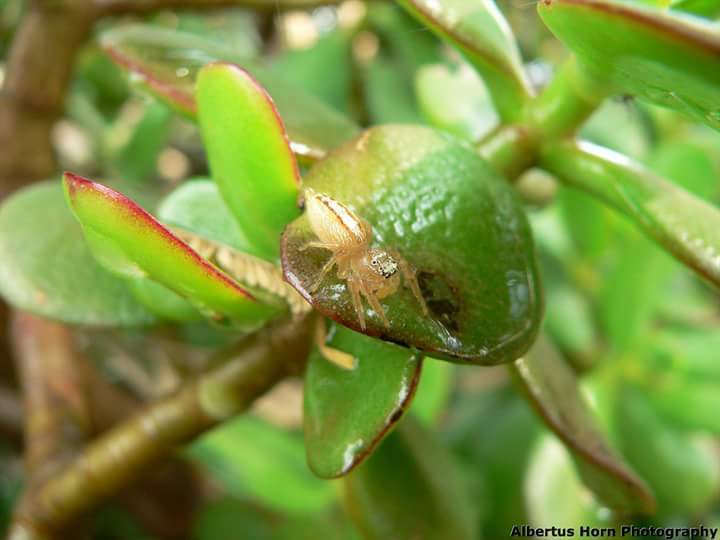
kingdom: Animalia
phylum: Arthropoda
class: Arachnida
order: Araneae
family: Salticidae
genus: Thyene
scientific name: Thyene ogdeni
